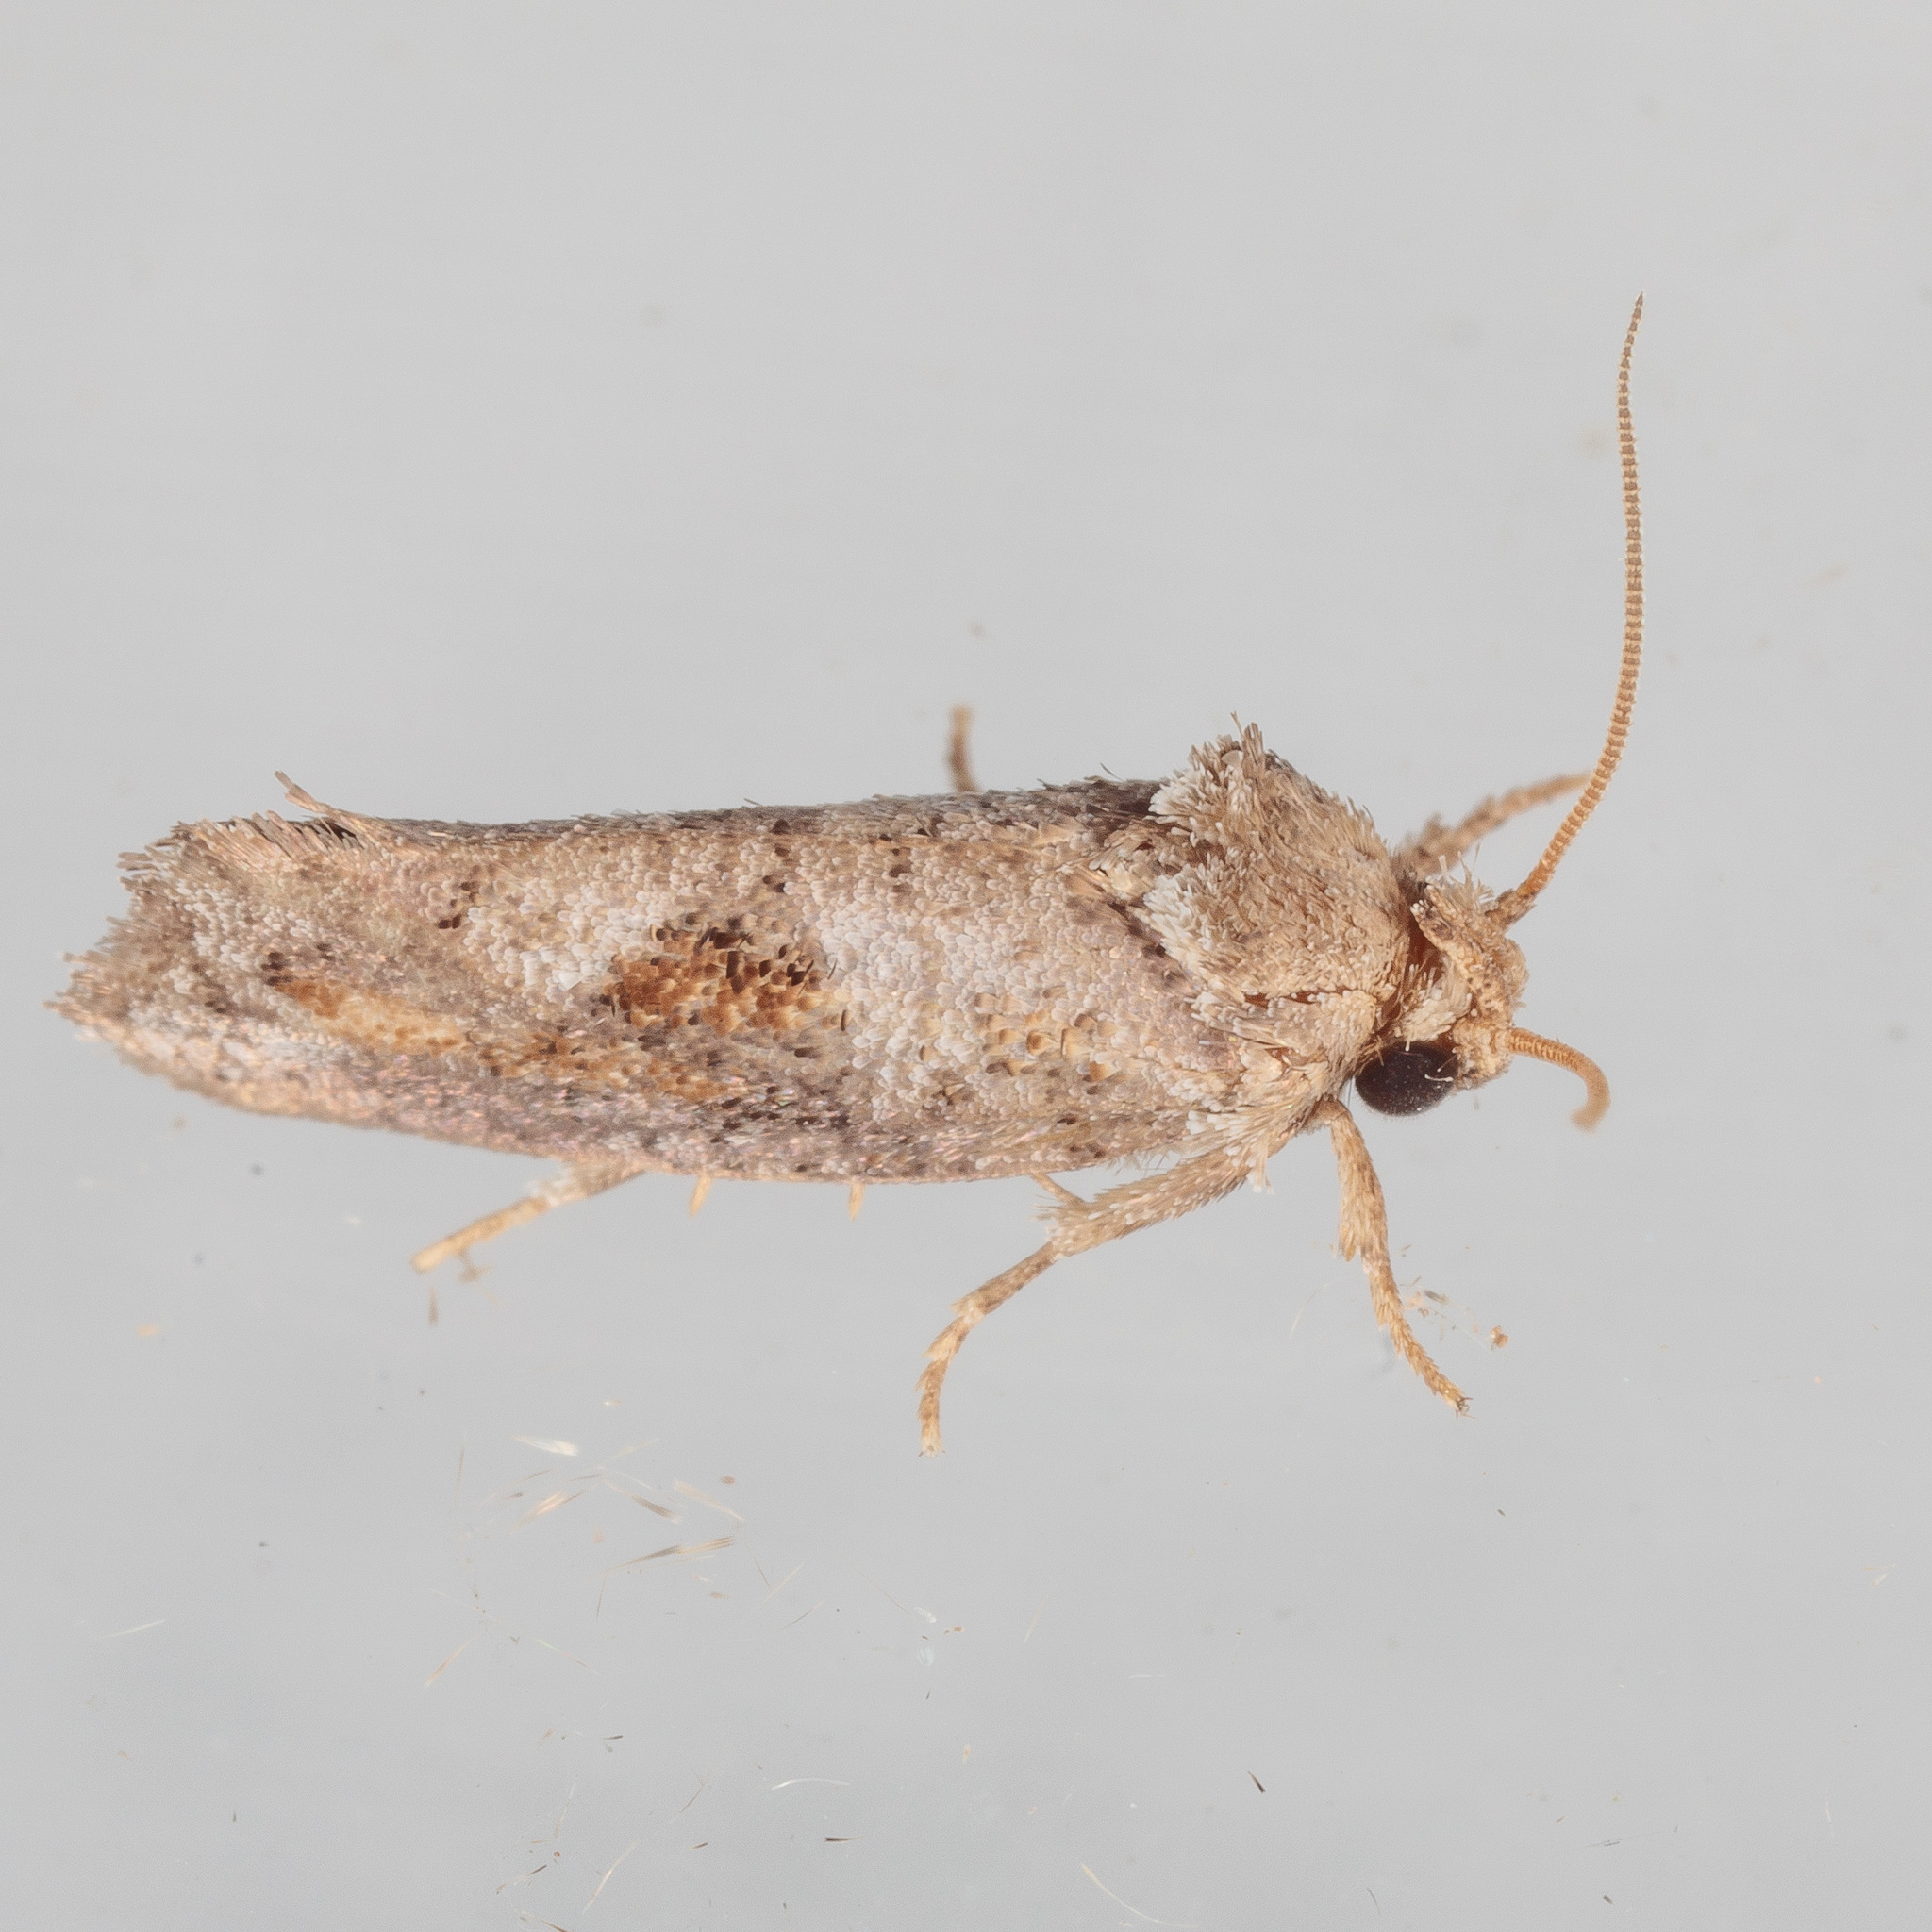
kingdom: Animalia
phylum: Arthropoda
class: Insecta
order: Lepidoptera
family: Tineidae
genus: Acrolophus
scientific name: Acrolophus piger
